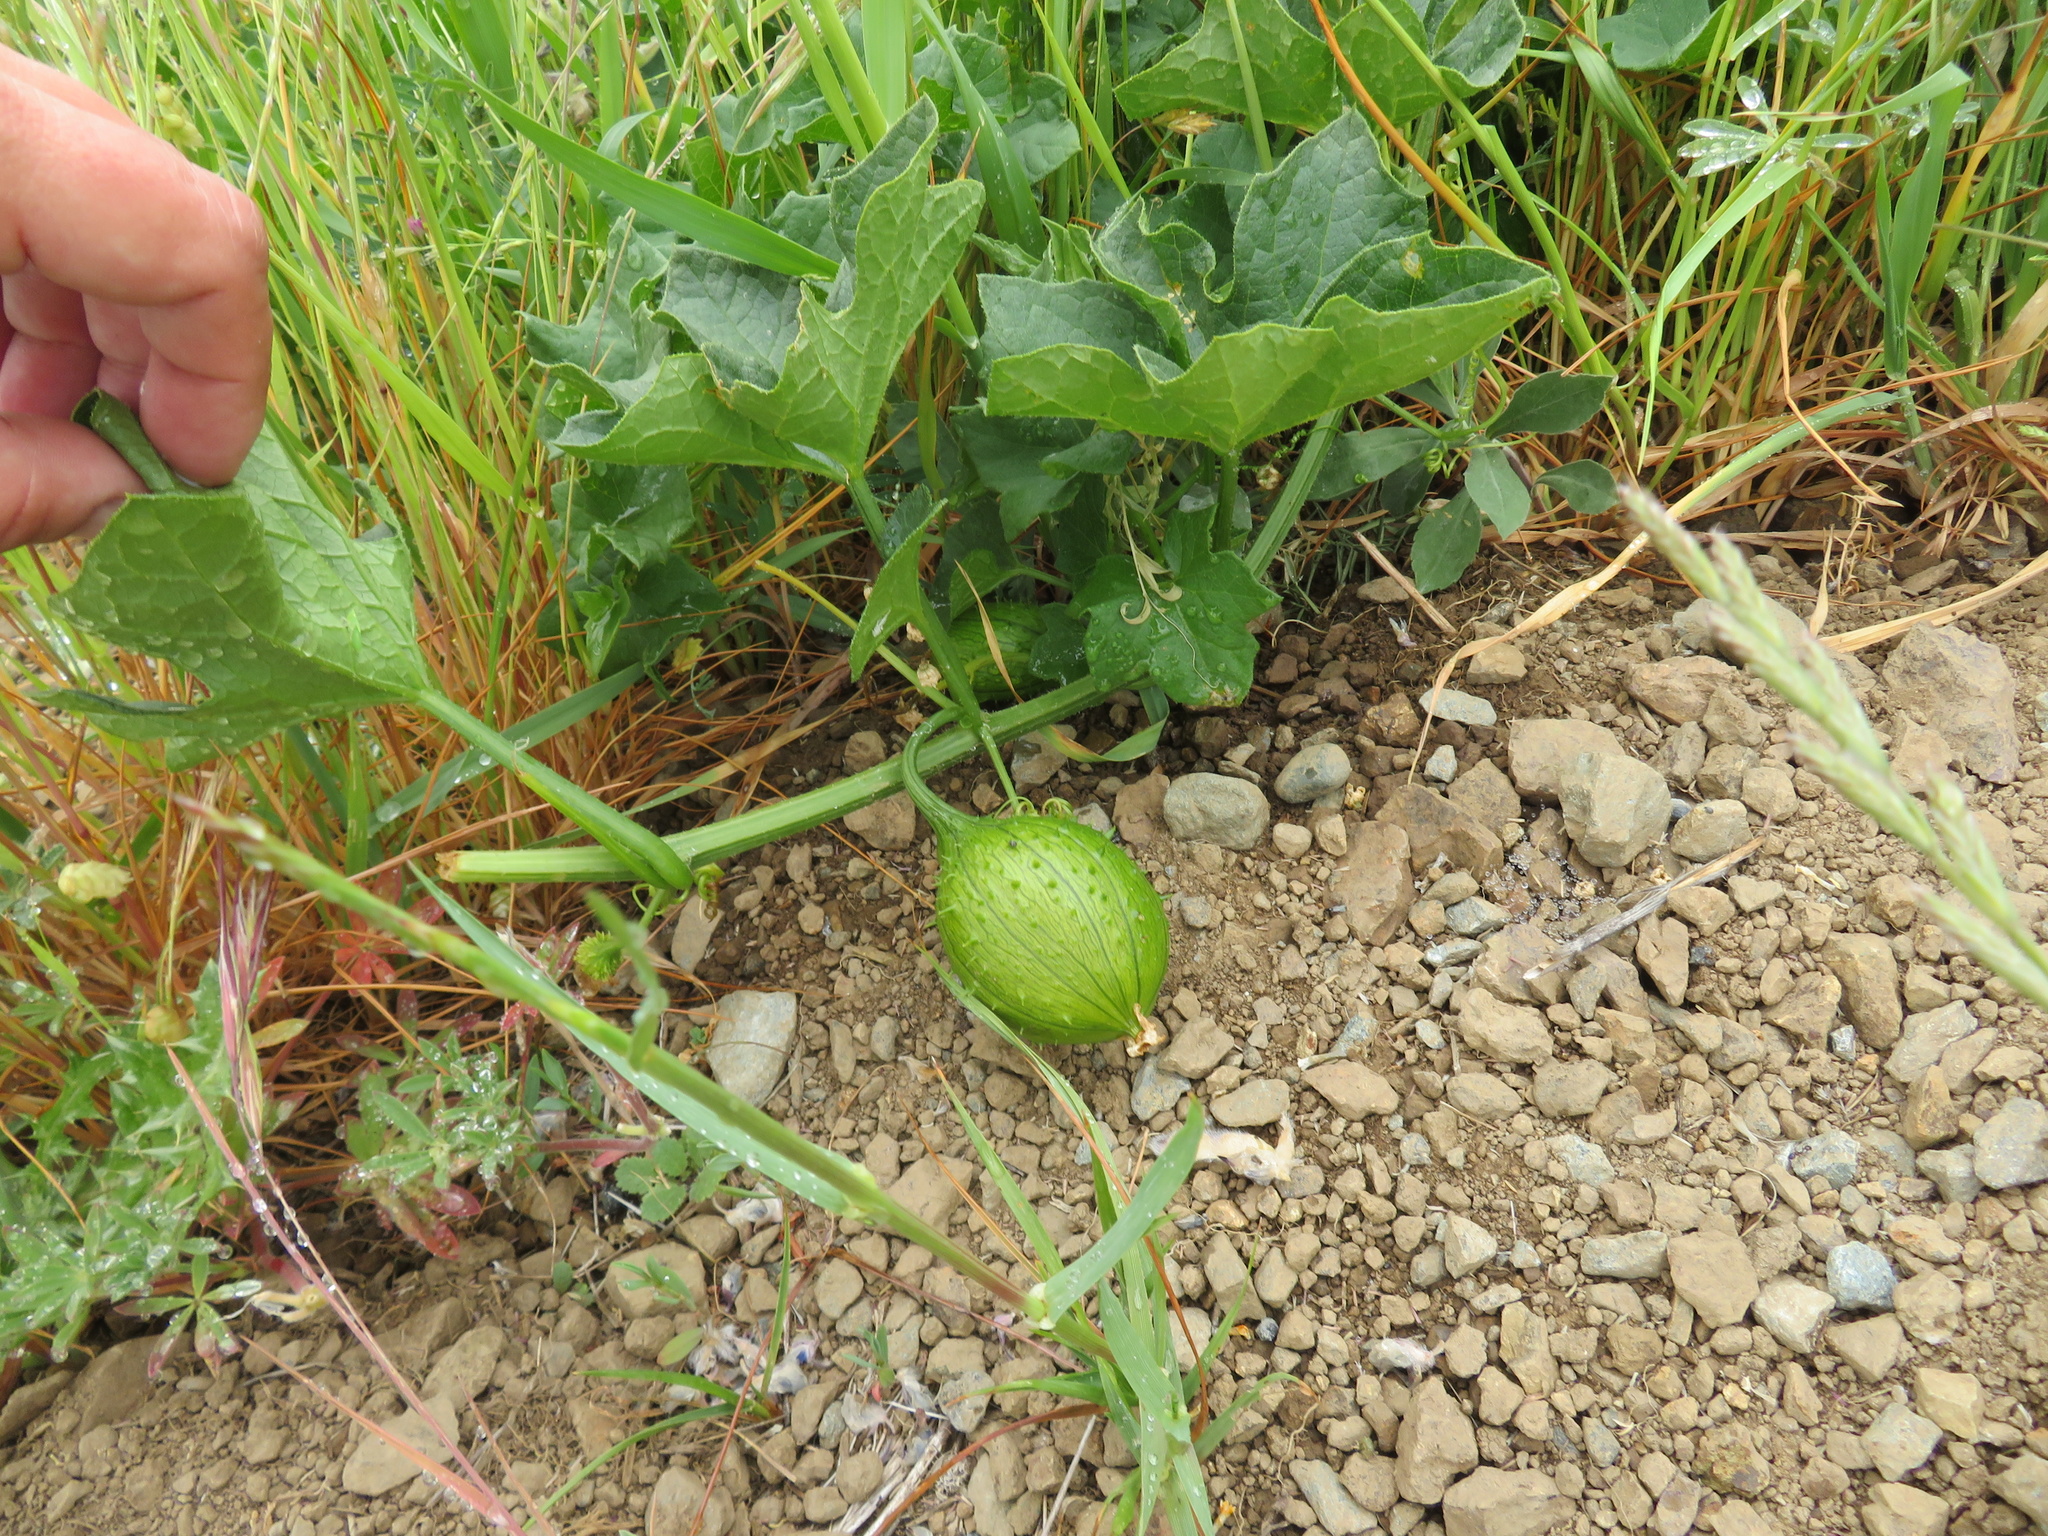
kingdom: Plantae
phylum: Tracheophyta
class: Magnoliopsida
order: Cucurbitales
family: Cucurbitaceae
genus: Marah
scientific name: Marah oregana
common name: Coastal manroot
